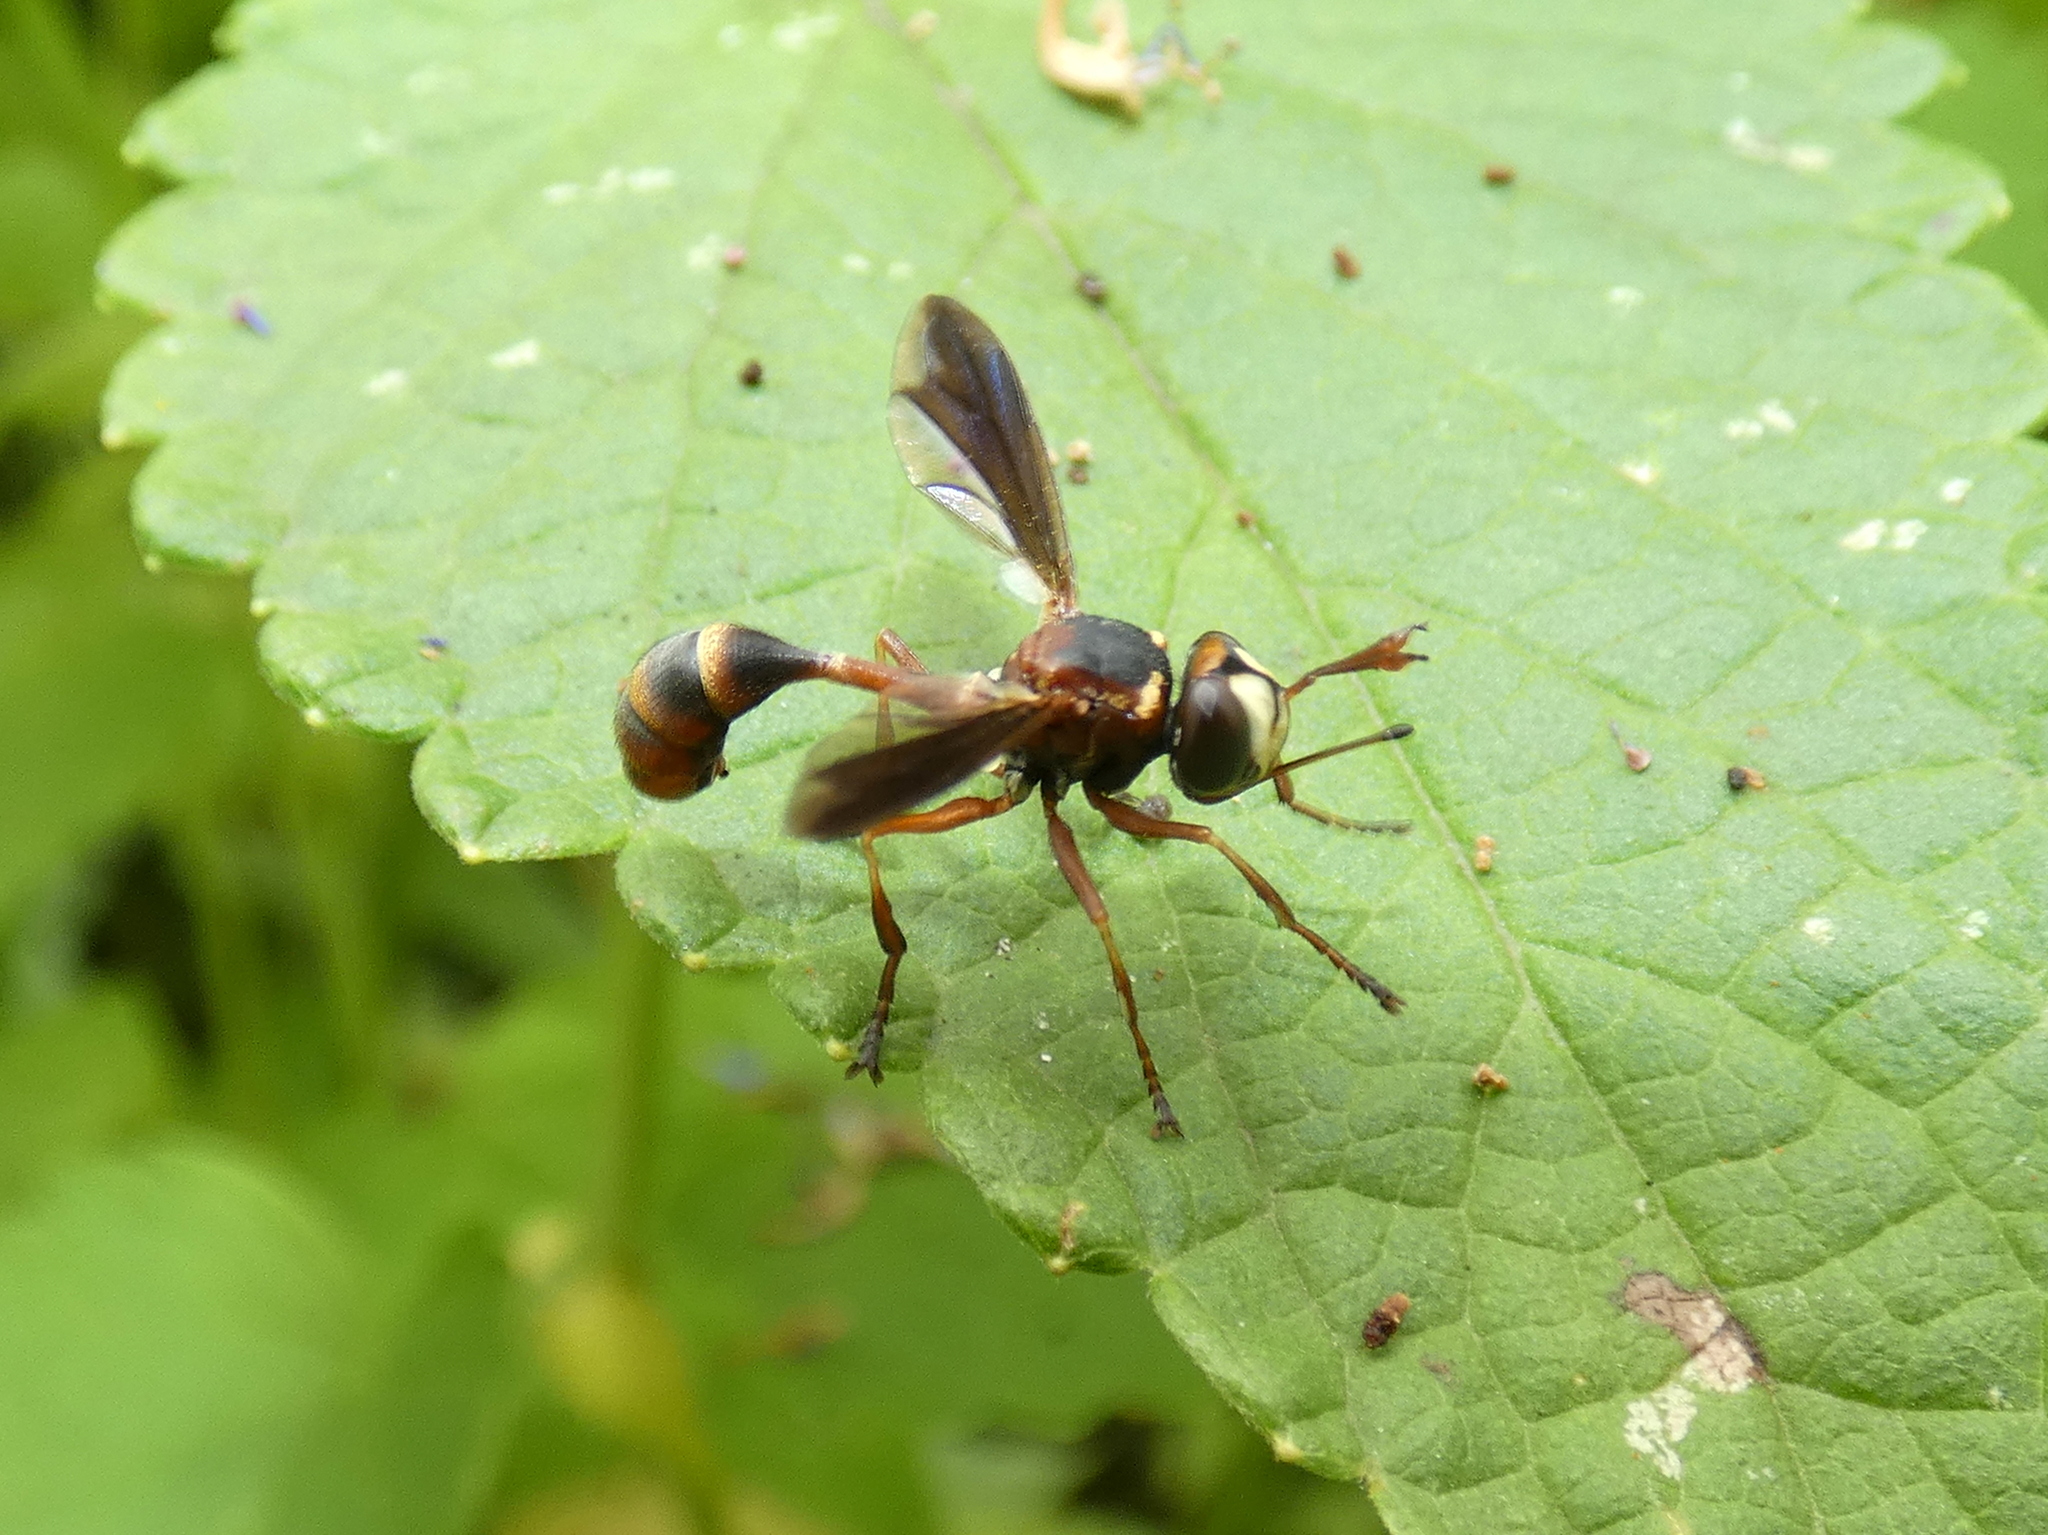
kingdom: Animalia
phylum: Arthropoda
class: Insecta
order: Diptera
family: Conopidae
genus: Physocephala
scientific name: Physocephala sagittaria
